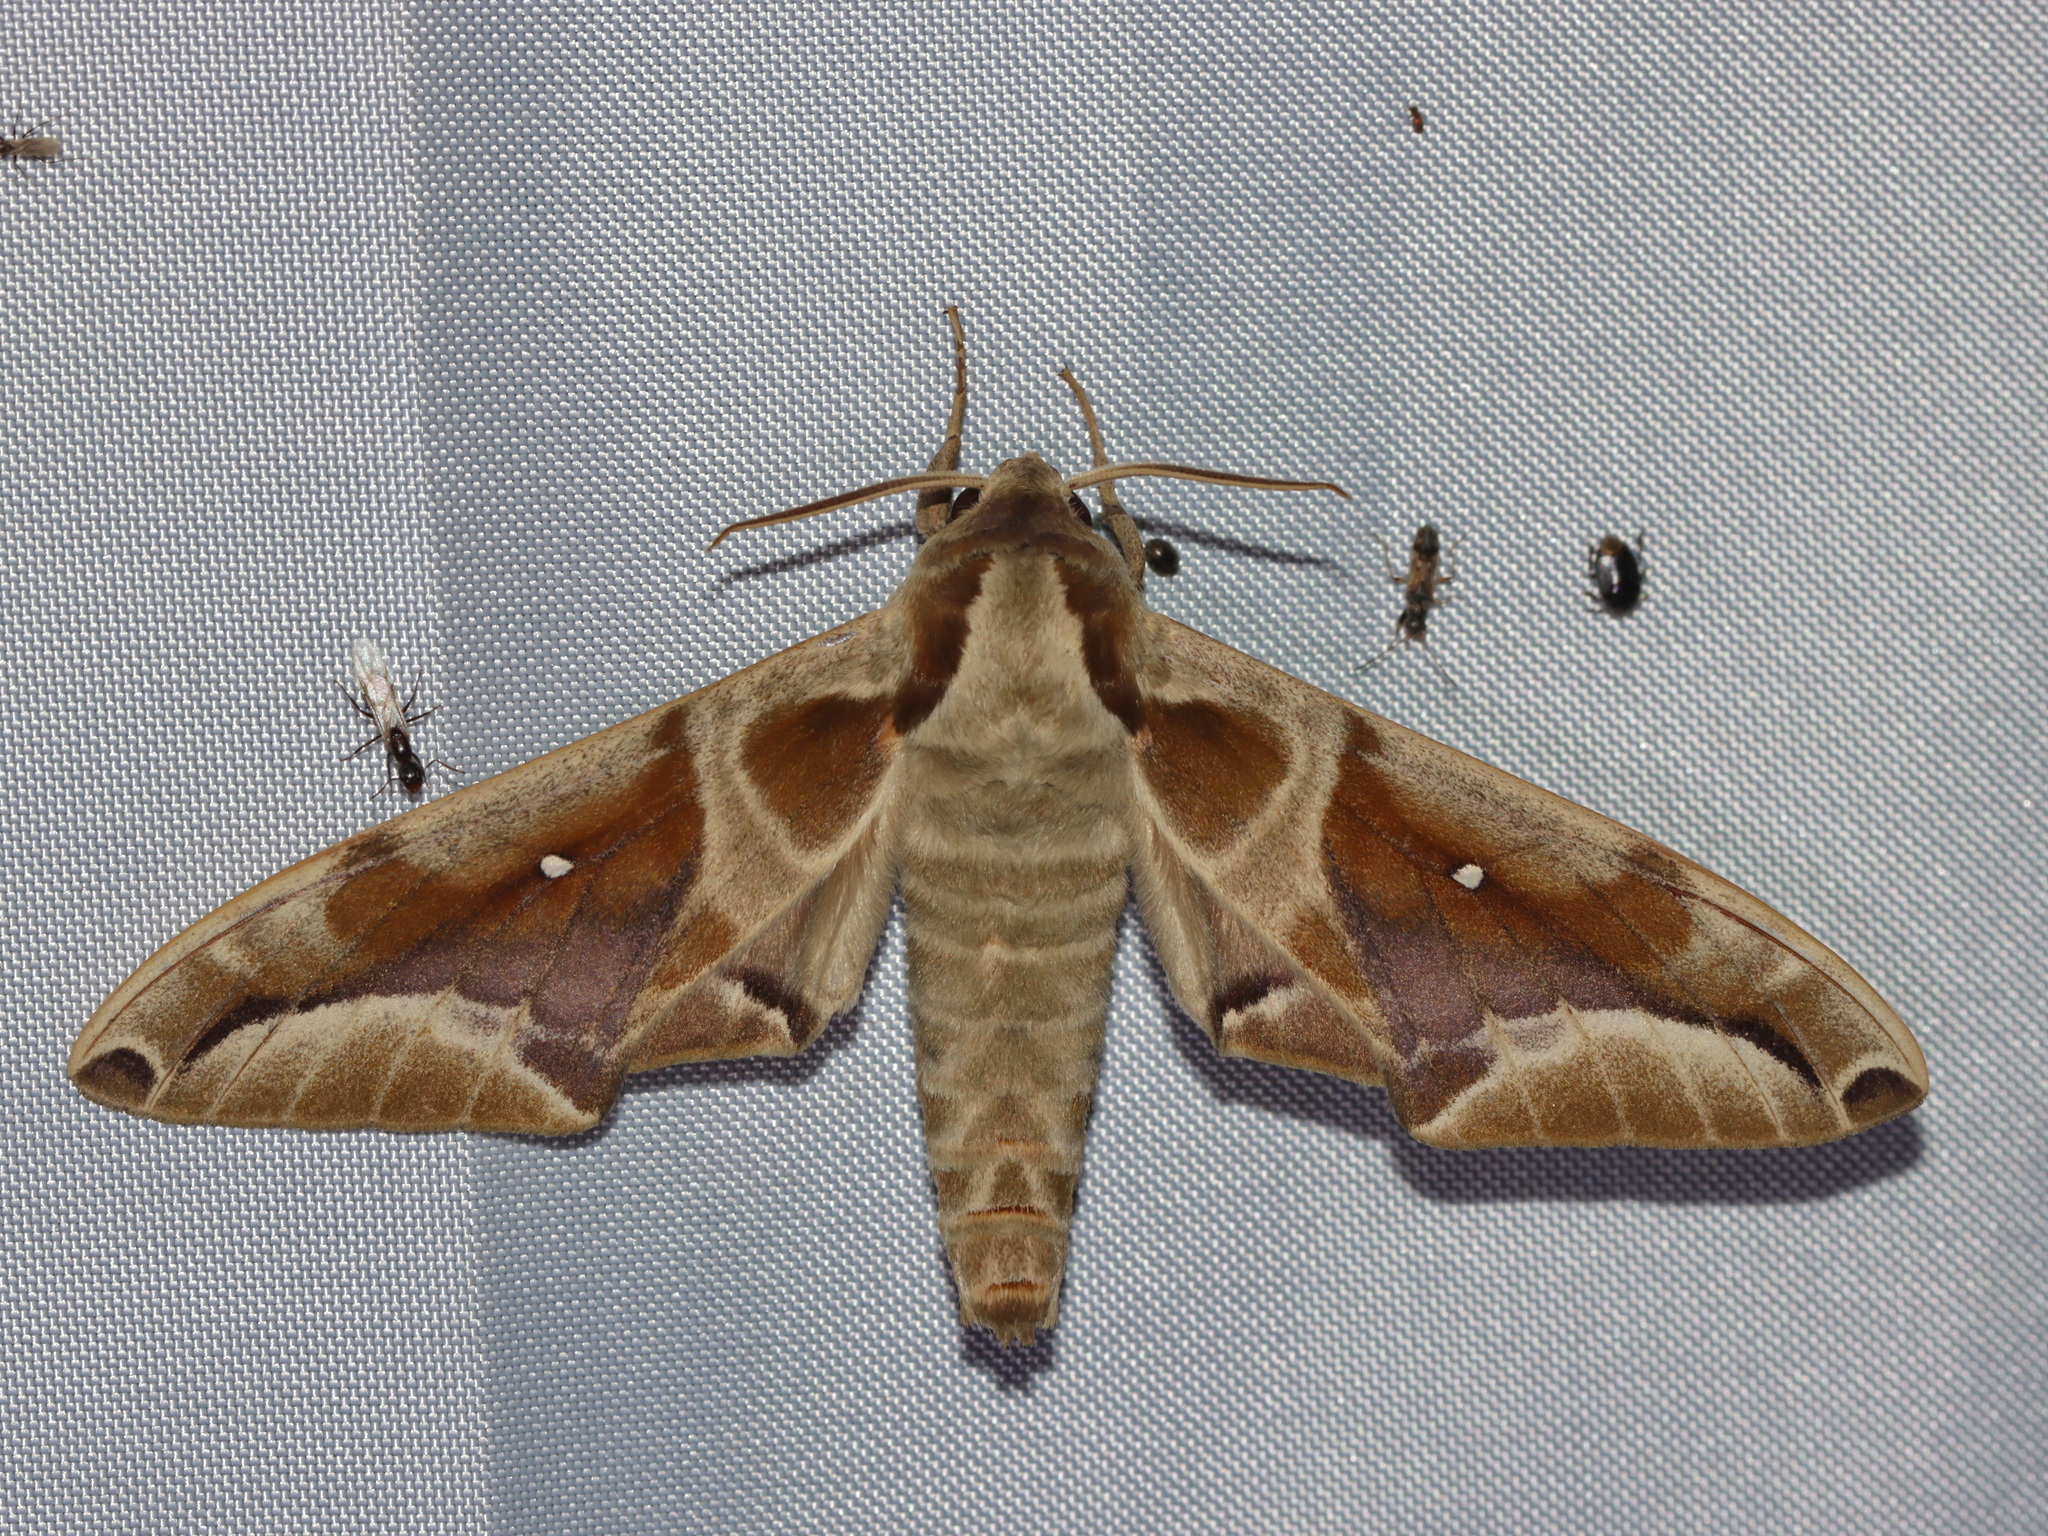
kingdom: Animalia
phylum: Arthropoda
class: Insecta
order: Lepidoptera
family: Sphingidae
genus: Parum
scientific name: Parum colligata
